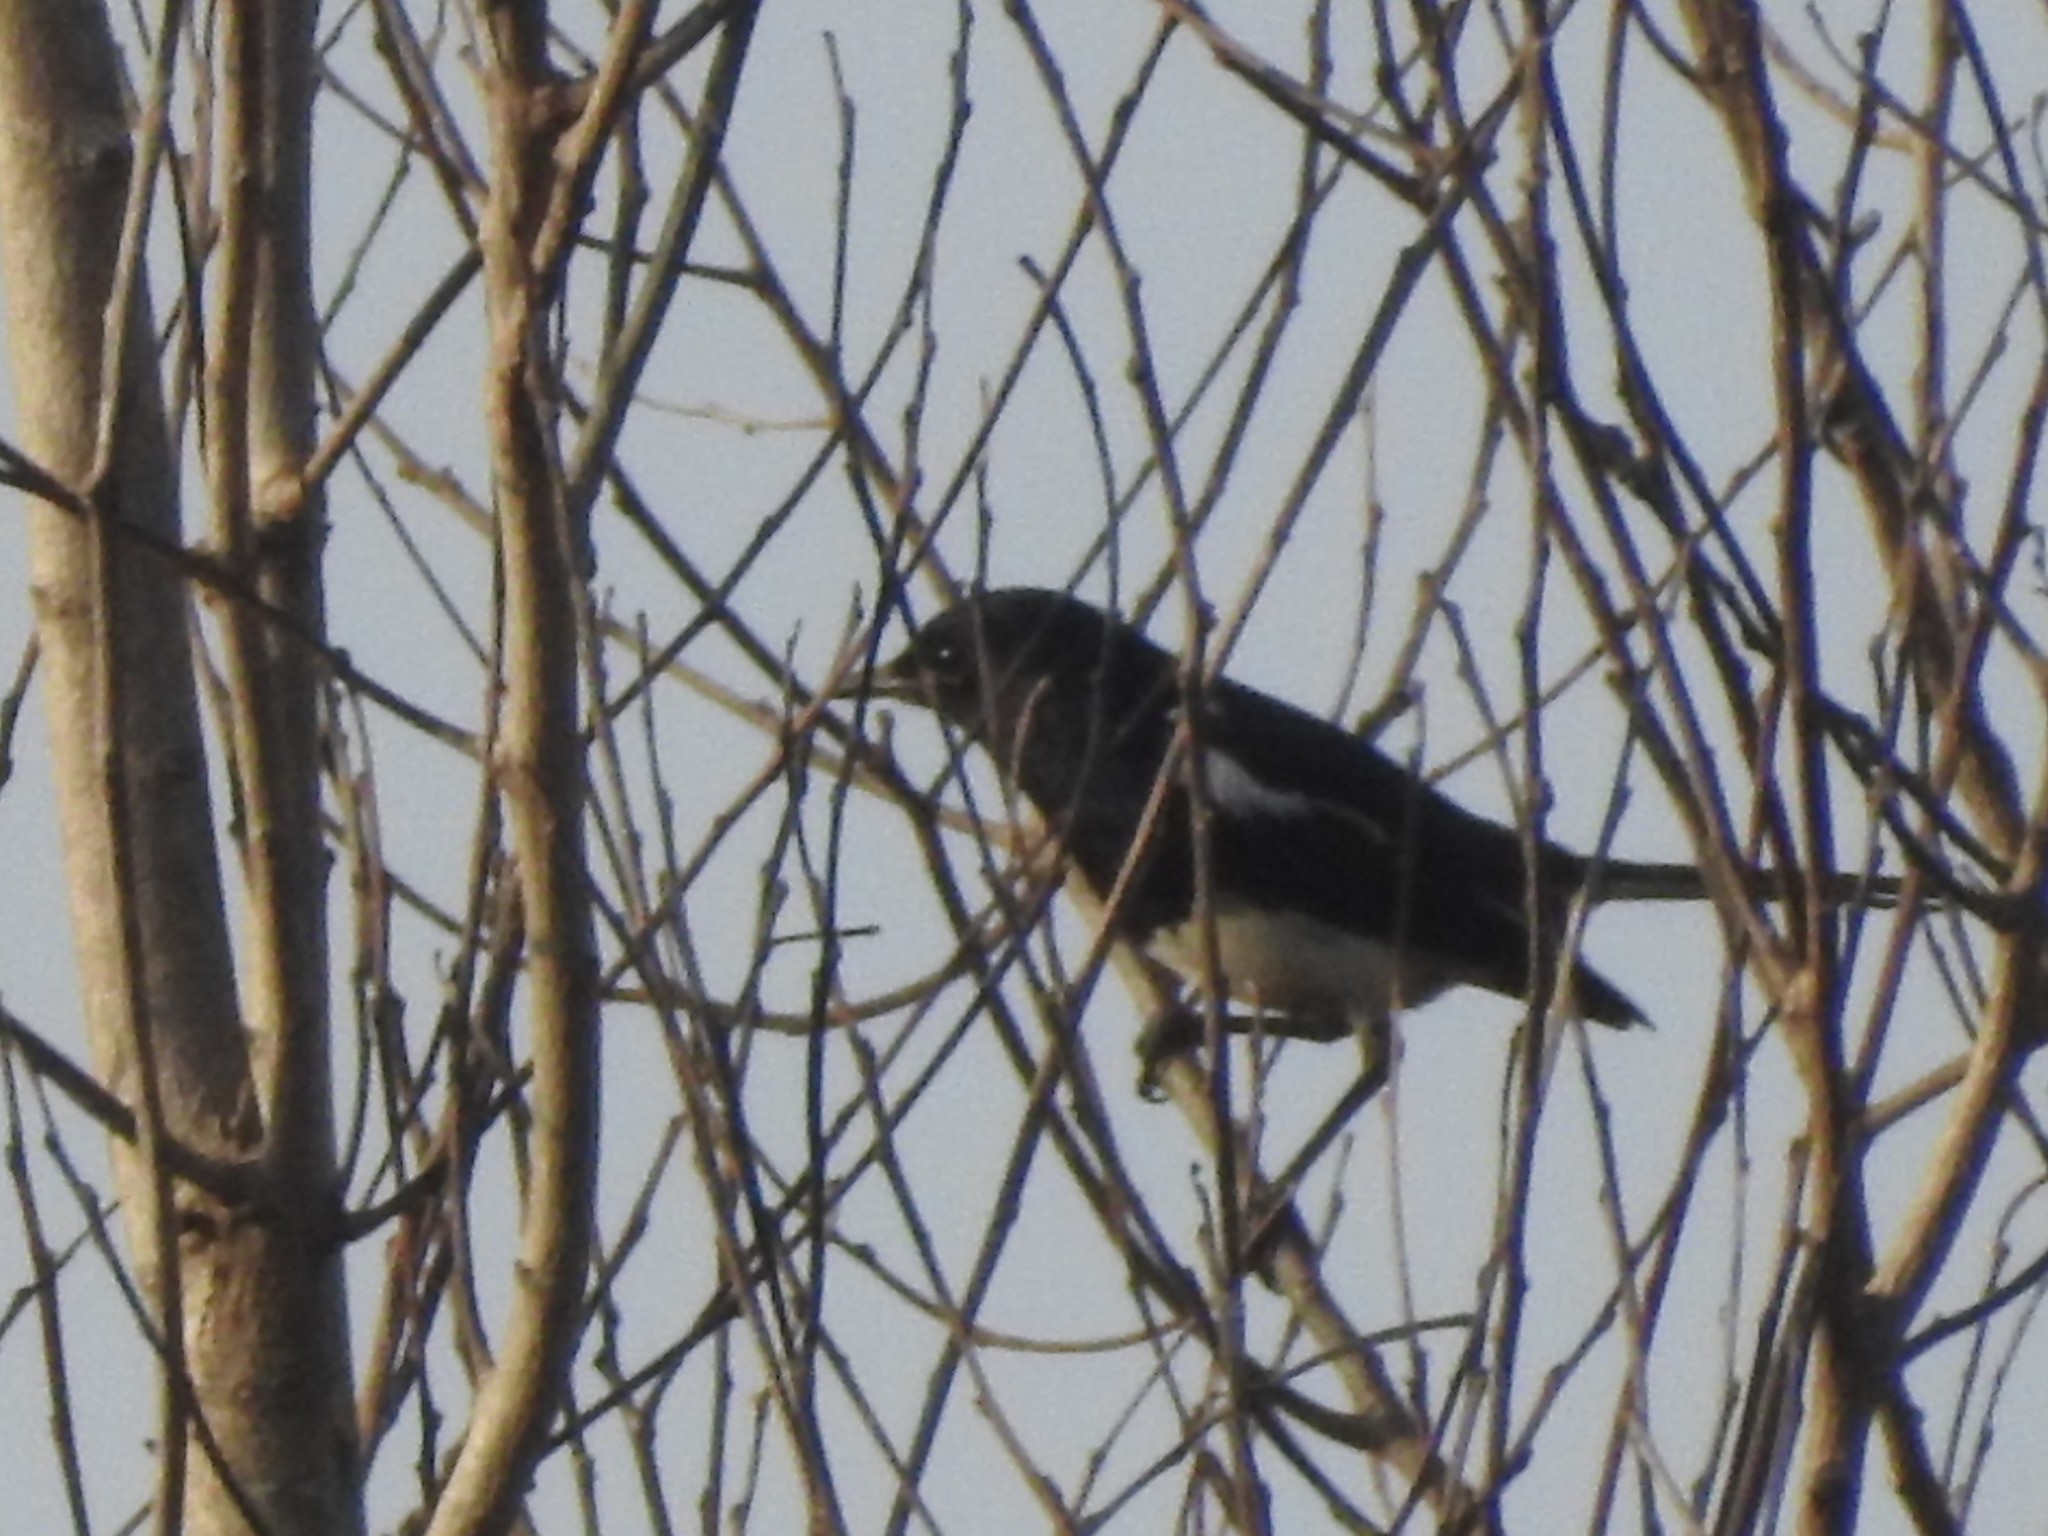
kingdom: Animalia
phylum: Chordata
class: Aves
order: Passeriformes
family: Muscicapidae
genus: Copsychus
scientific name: Copsychus saularis
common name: Oriental magpie-robin
